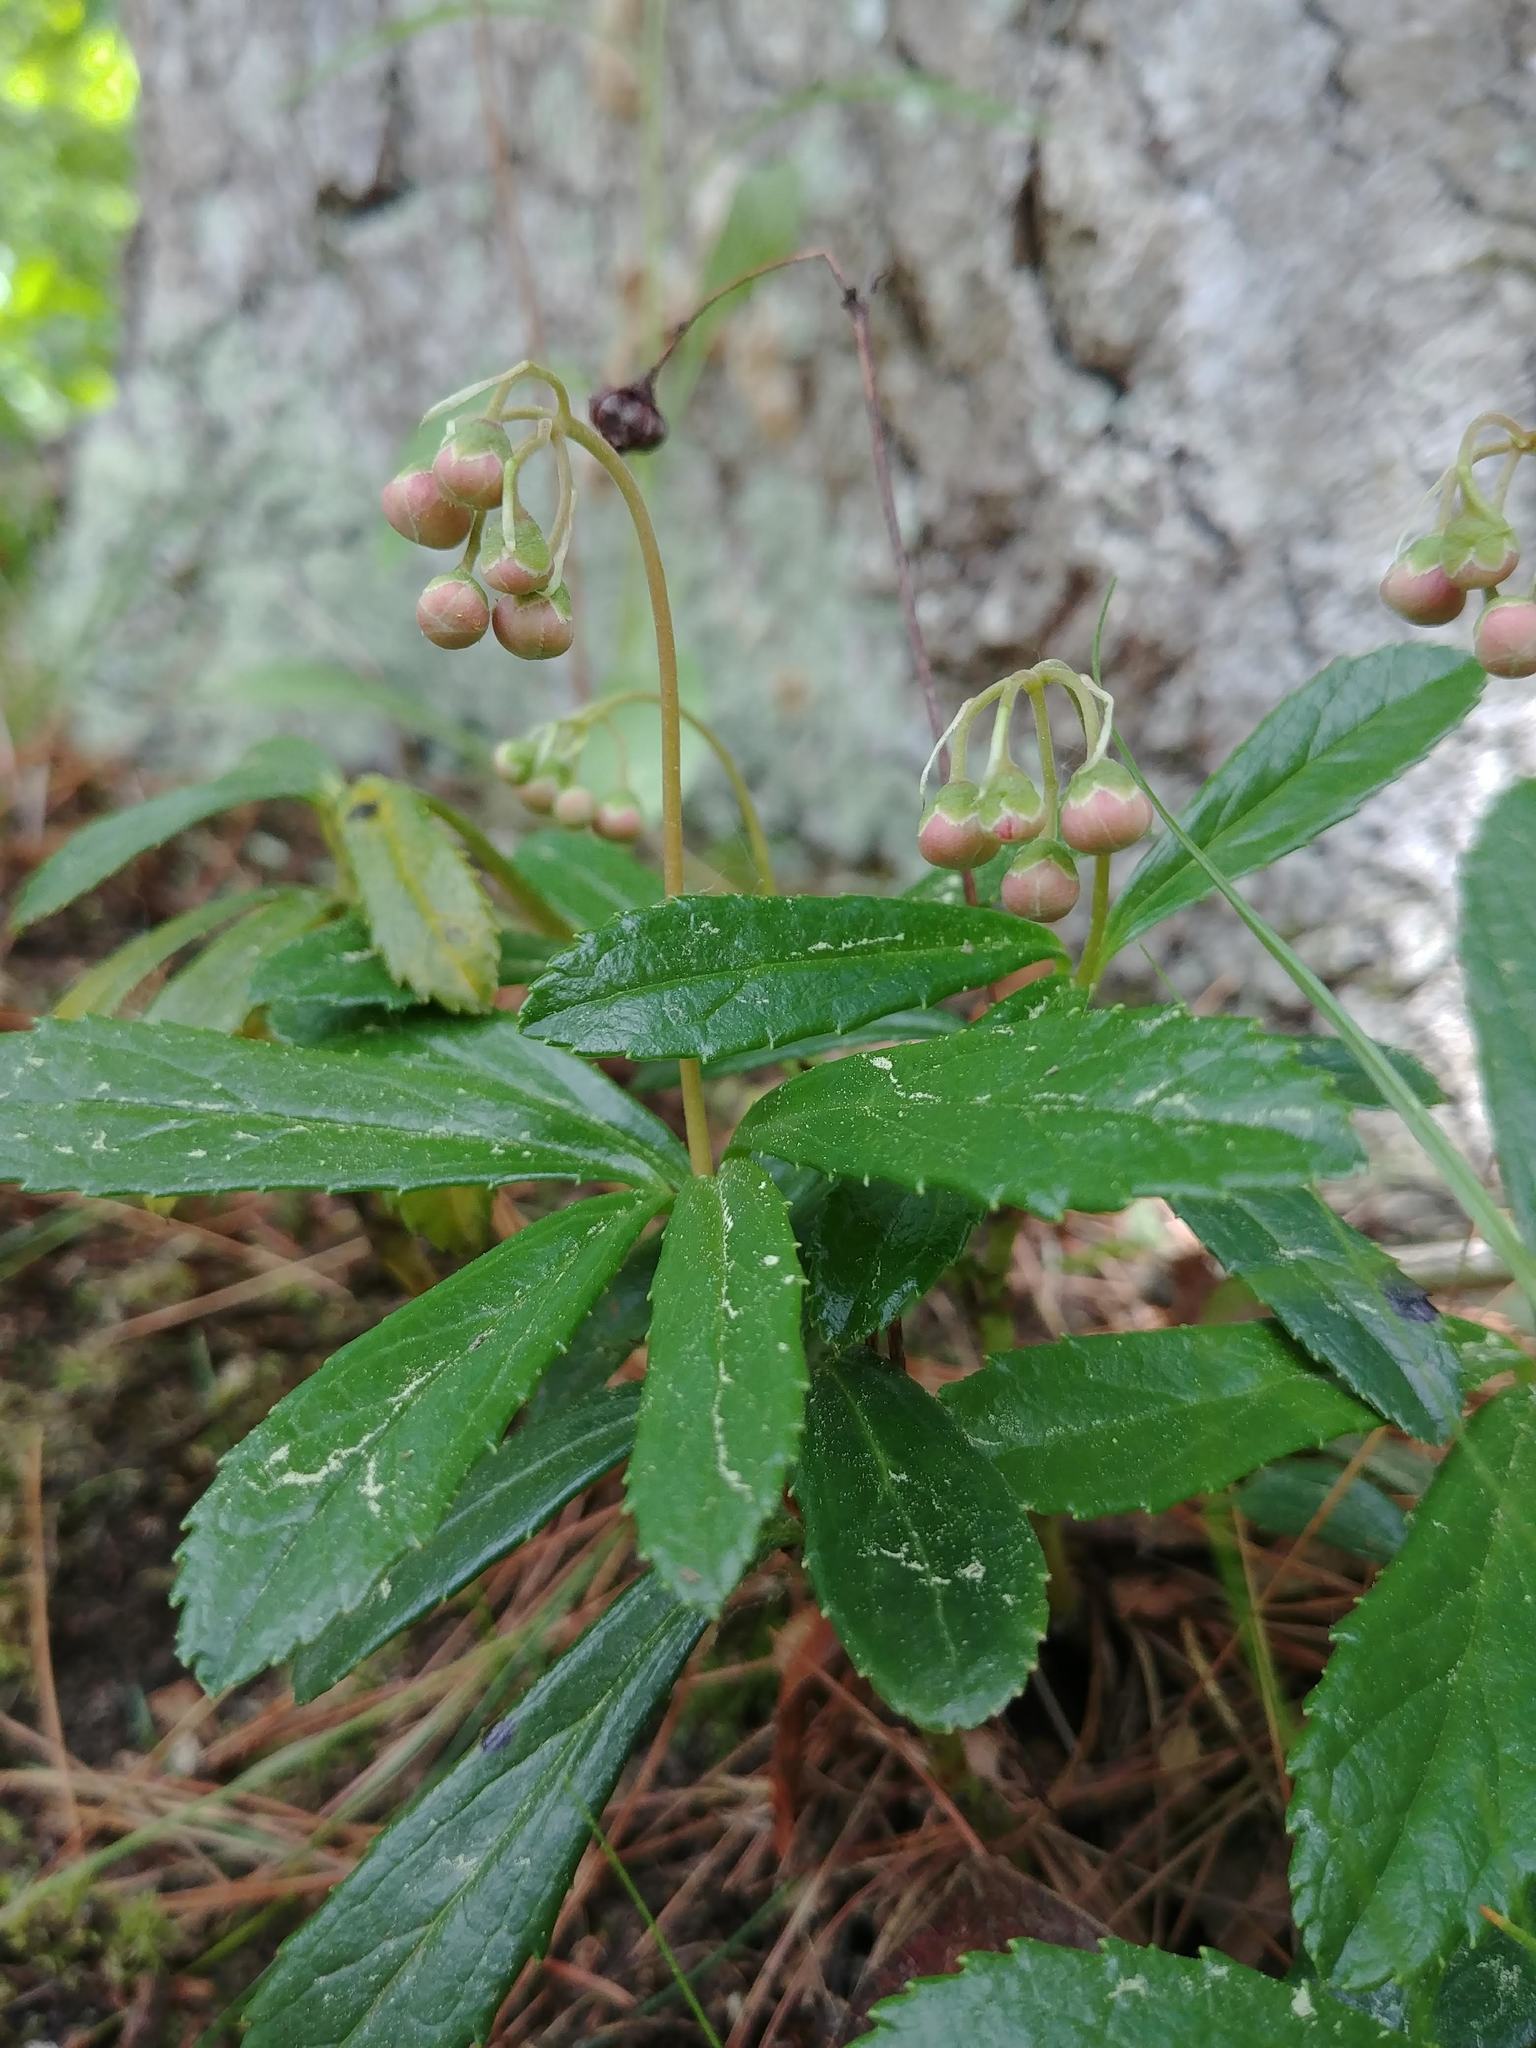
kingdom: Plantae
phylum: Tracheophyta
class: Magnoliopsida
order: Ericales
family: Ericaceae
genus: Chimaphila
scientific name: Chimaphila umbellata
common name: Pipsissewa
